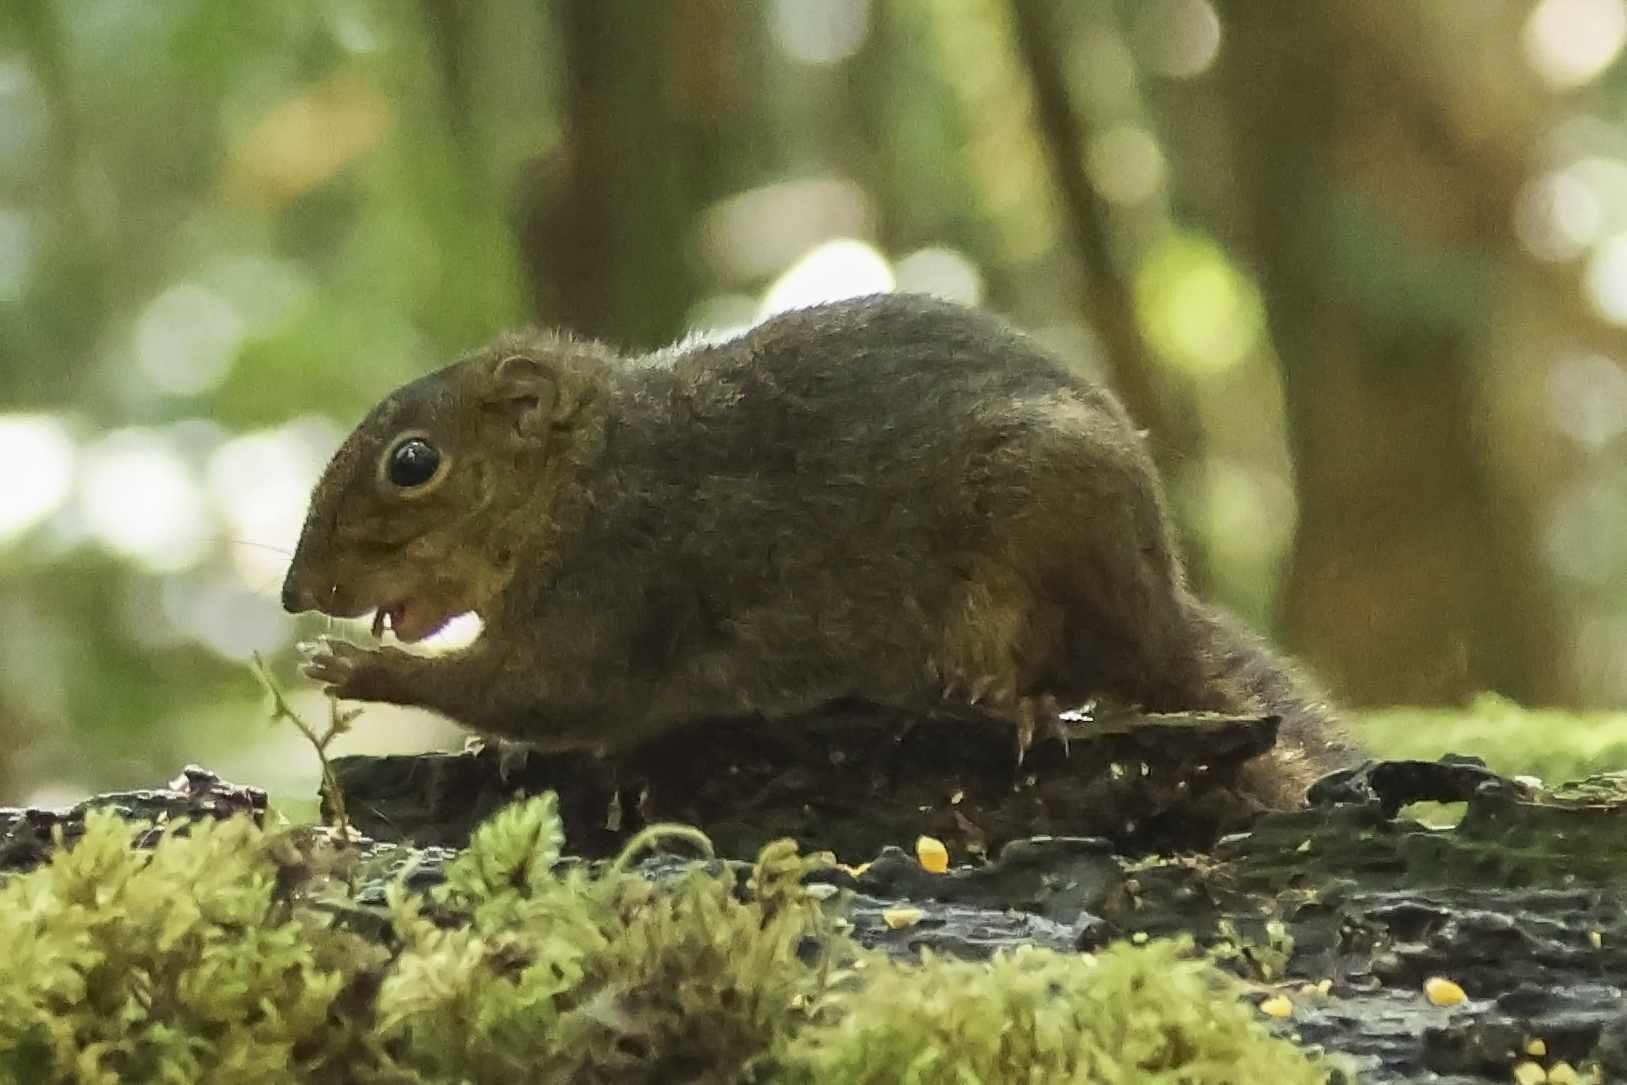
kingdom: Animalia
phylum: Chordata
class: Mammalia
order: Rodentia
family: Sciuridae
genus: Sundasciurus
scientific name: Sundasciurus everetti
